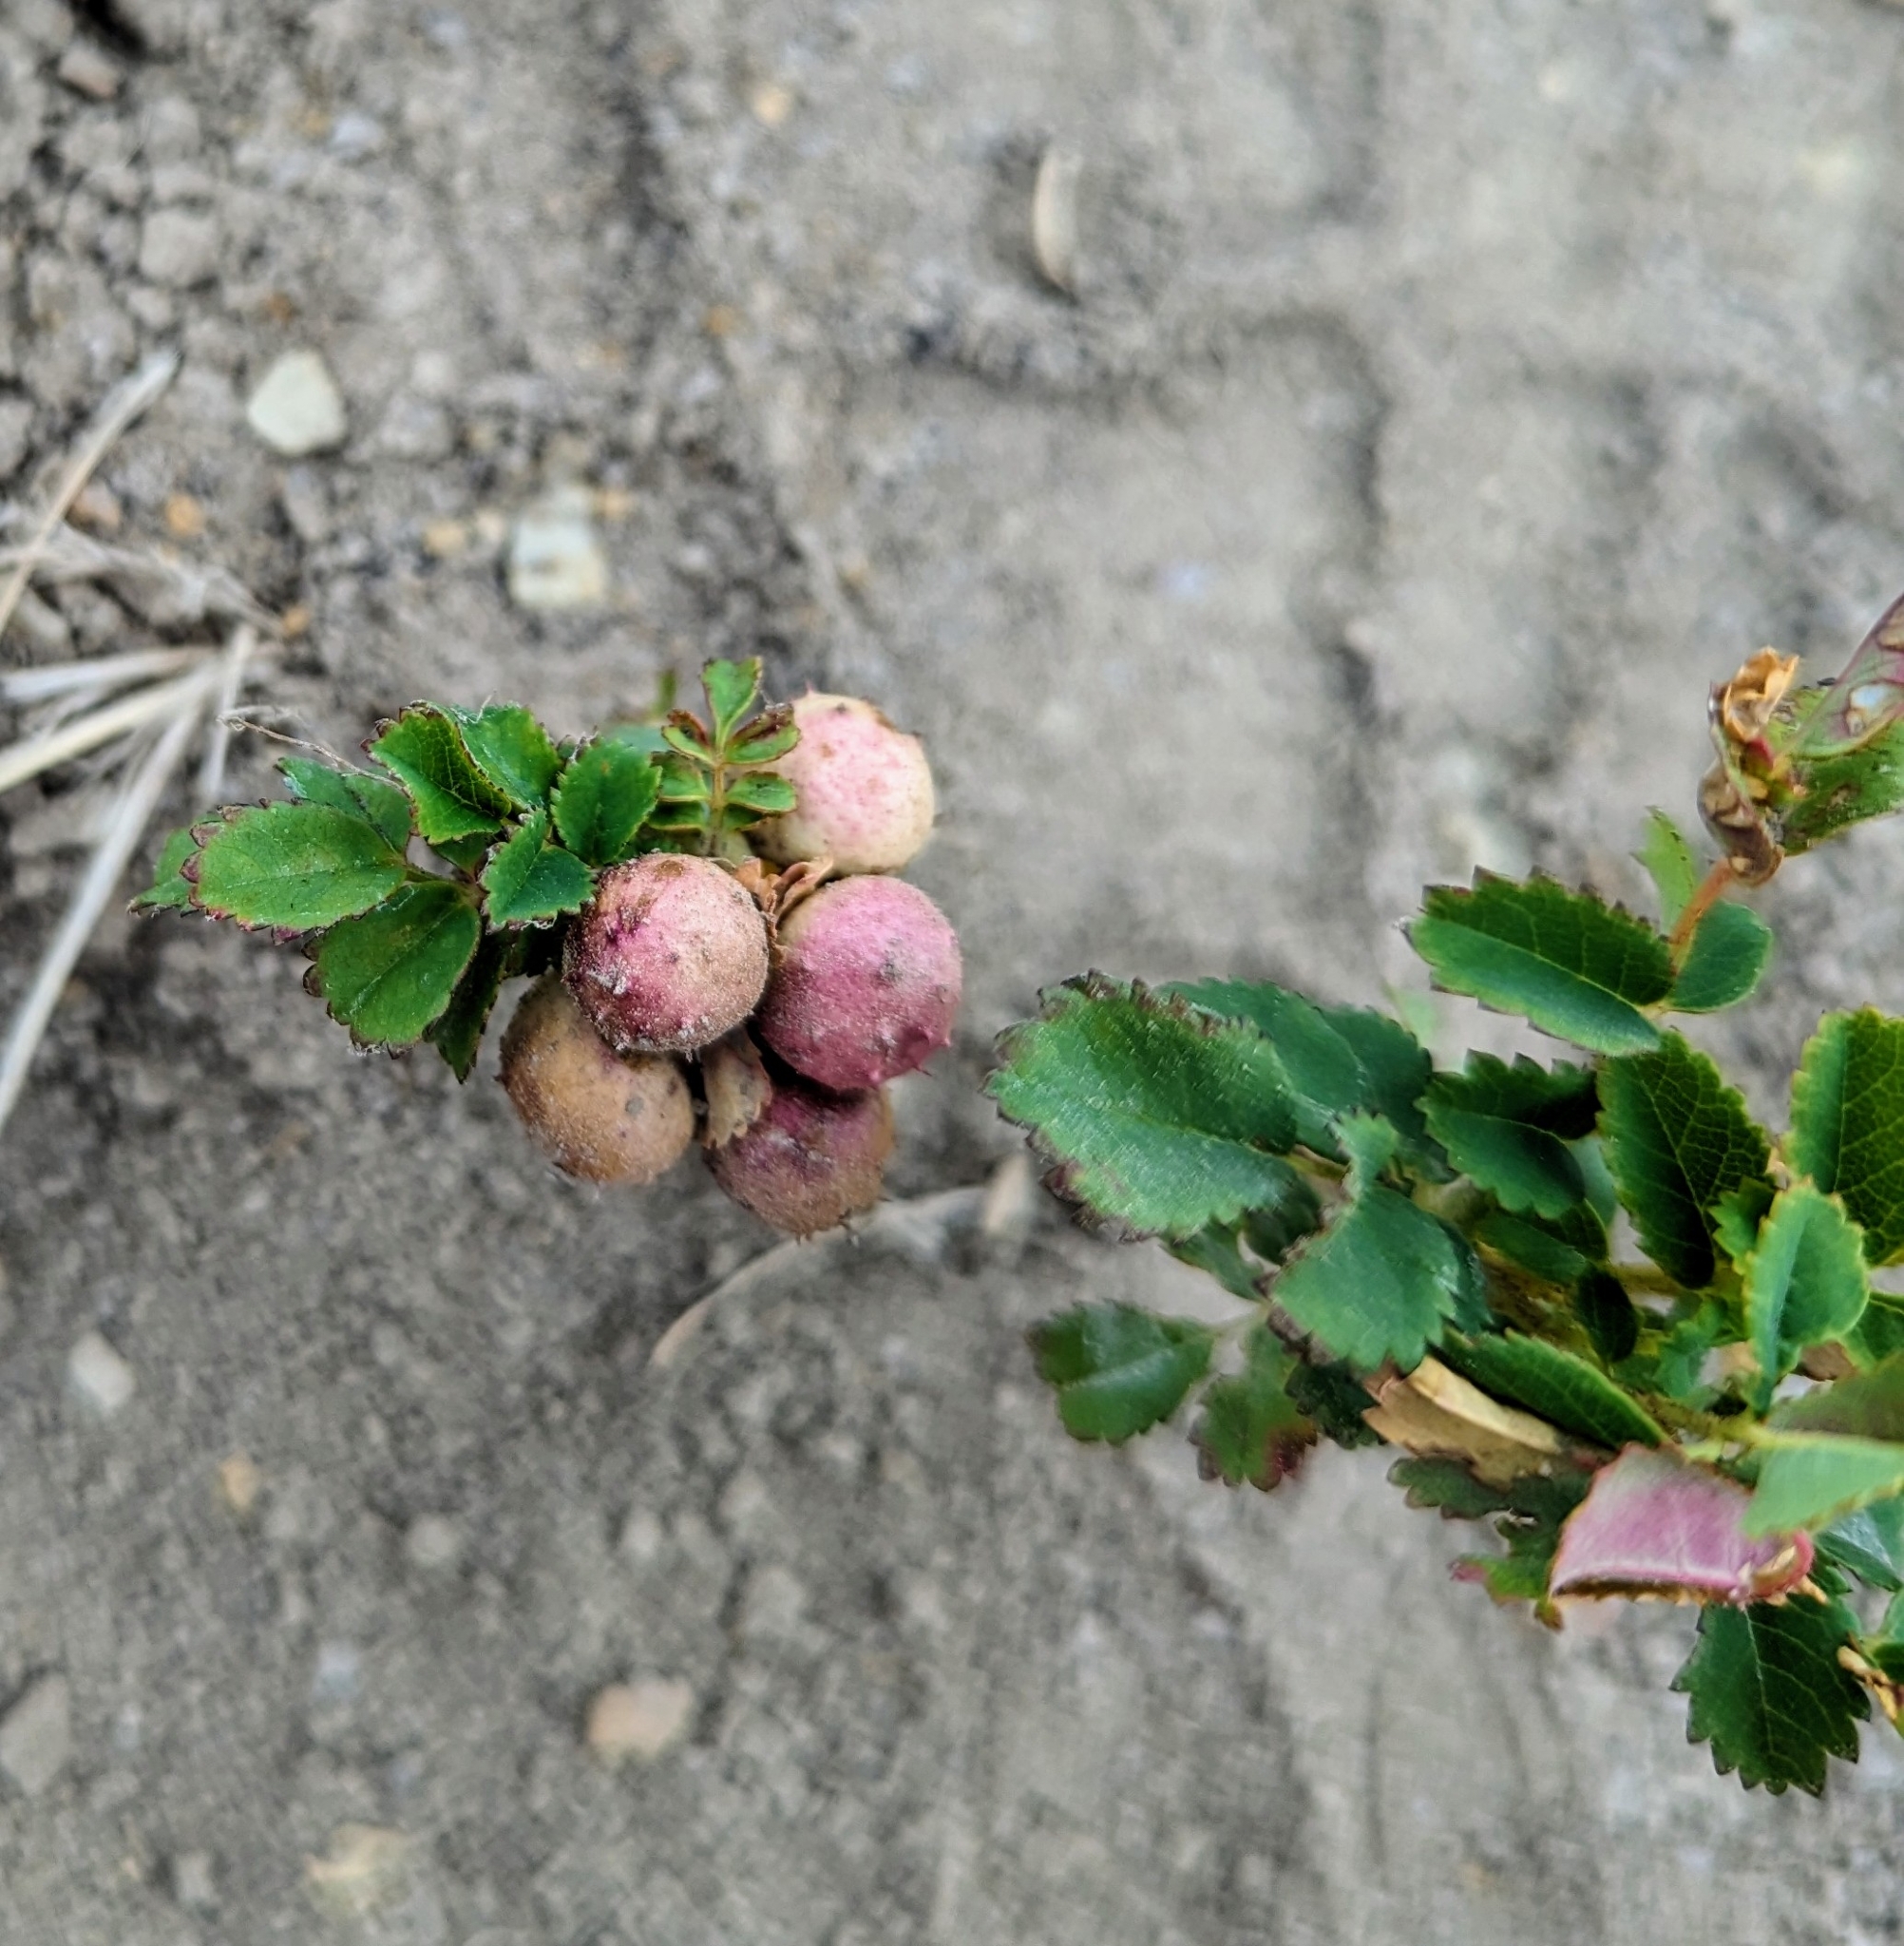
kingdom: Animalia
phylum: Arthropoda
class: Insecta
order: Hymenoptera
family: Cynipidae
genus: Diplolepis
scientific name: Diplolepis polita
